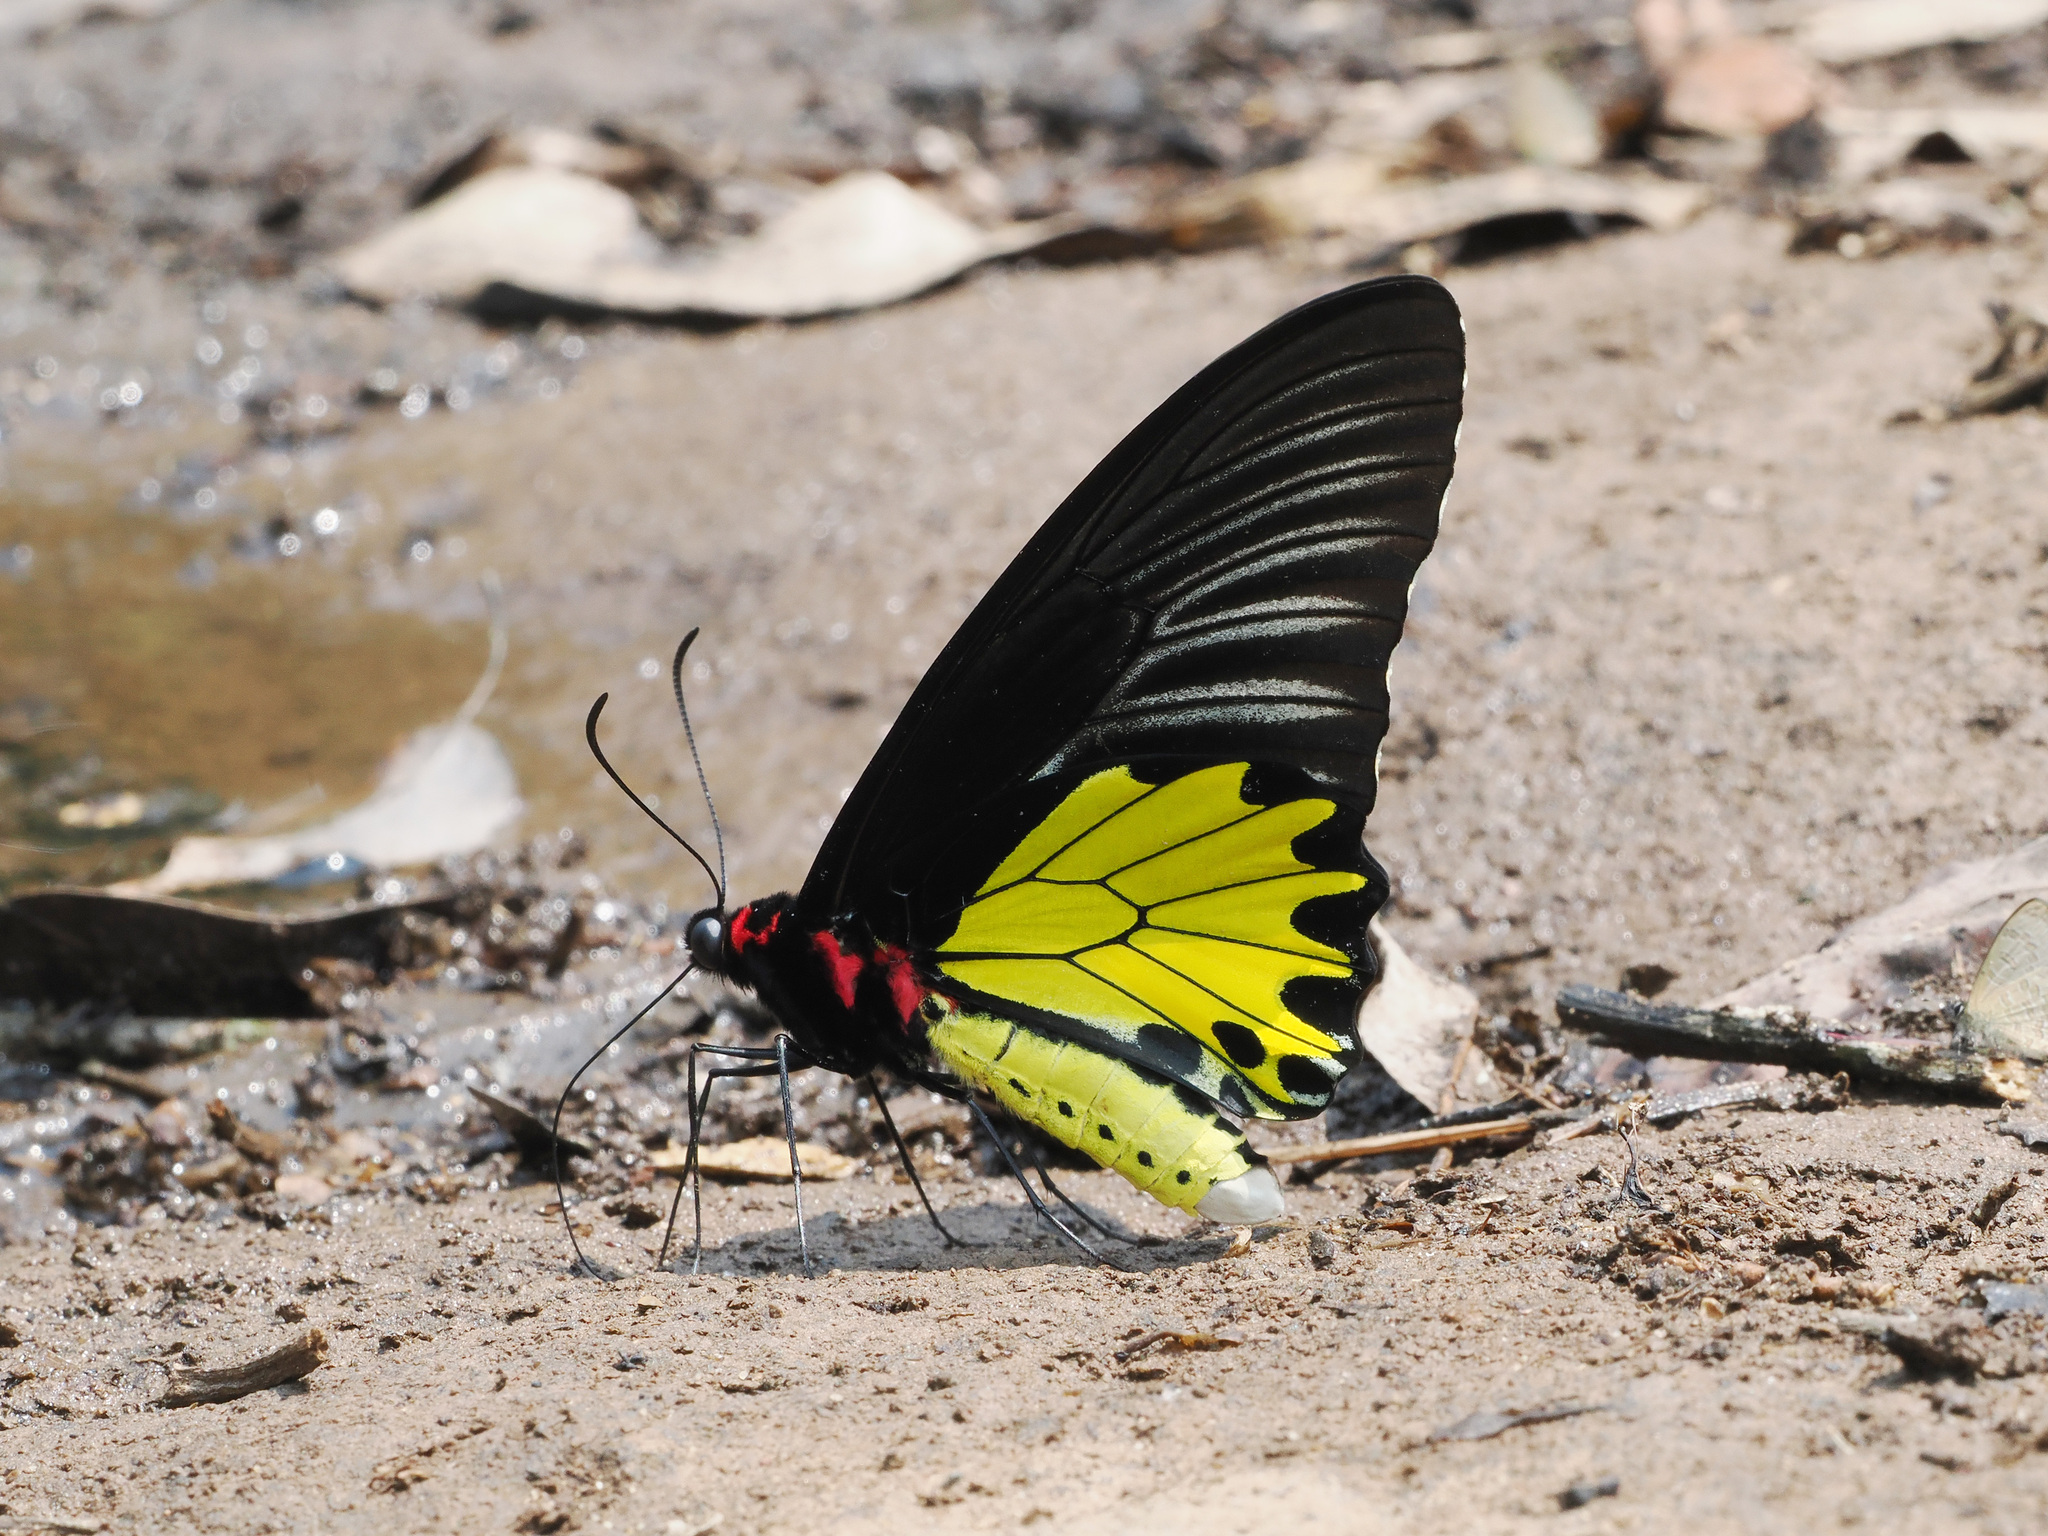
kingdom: Animalia
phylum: Arthropoda
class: Insecta
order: Lepidoptera
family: Papilionidae
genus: Troides
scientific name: Troides helena
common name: Common birdwing
